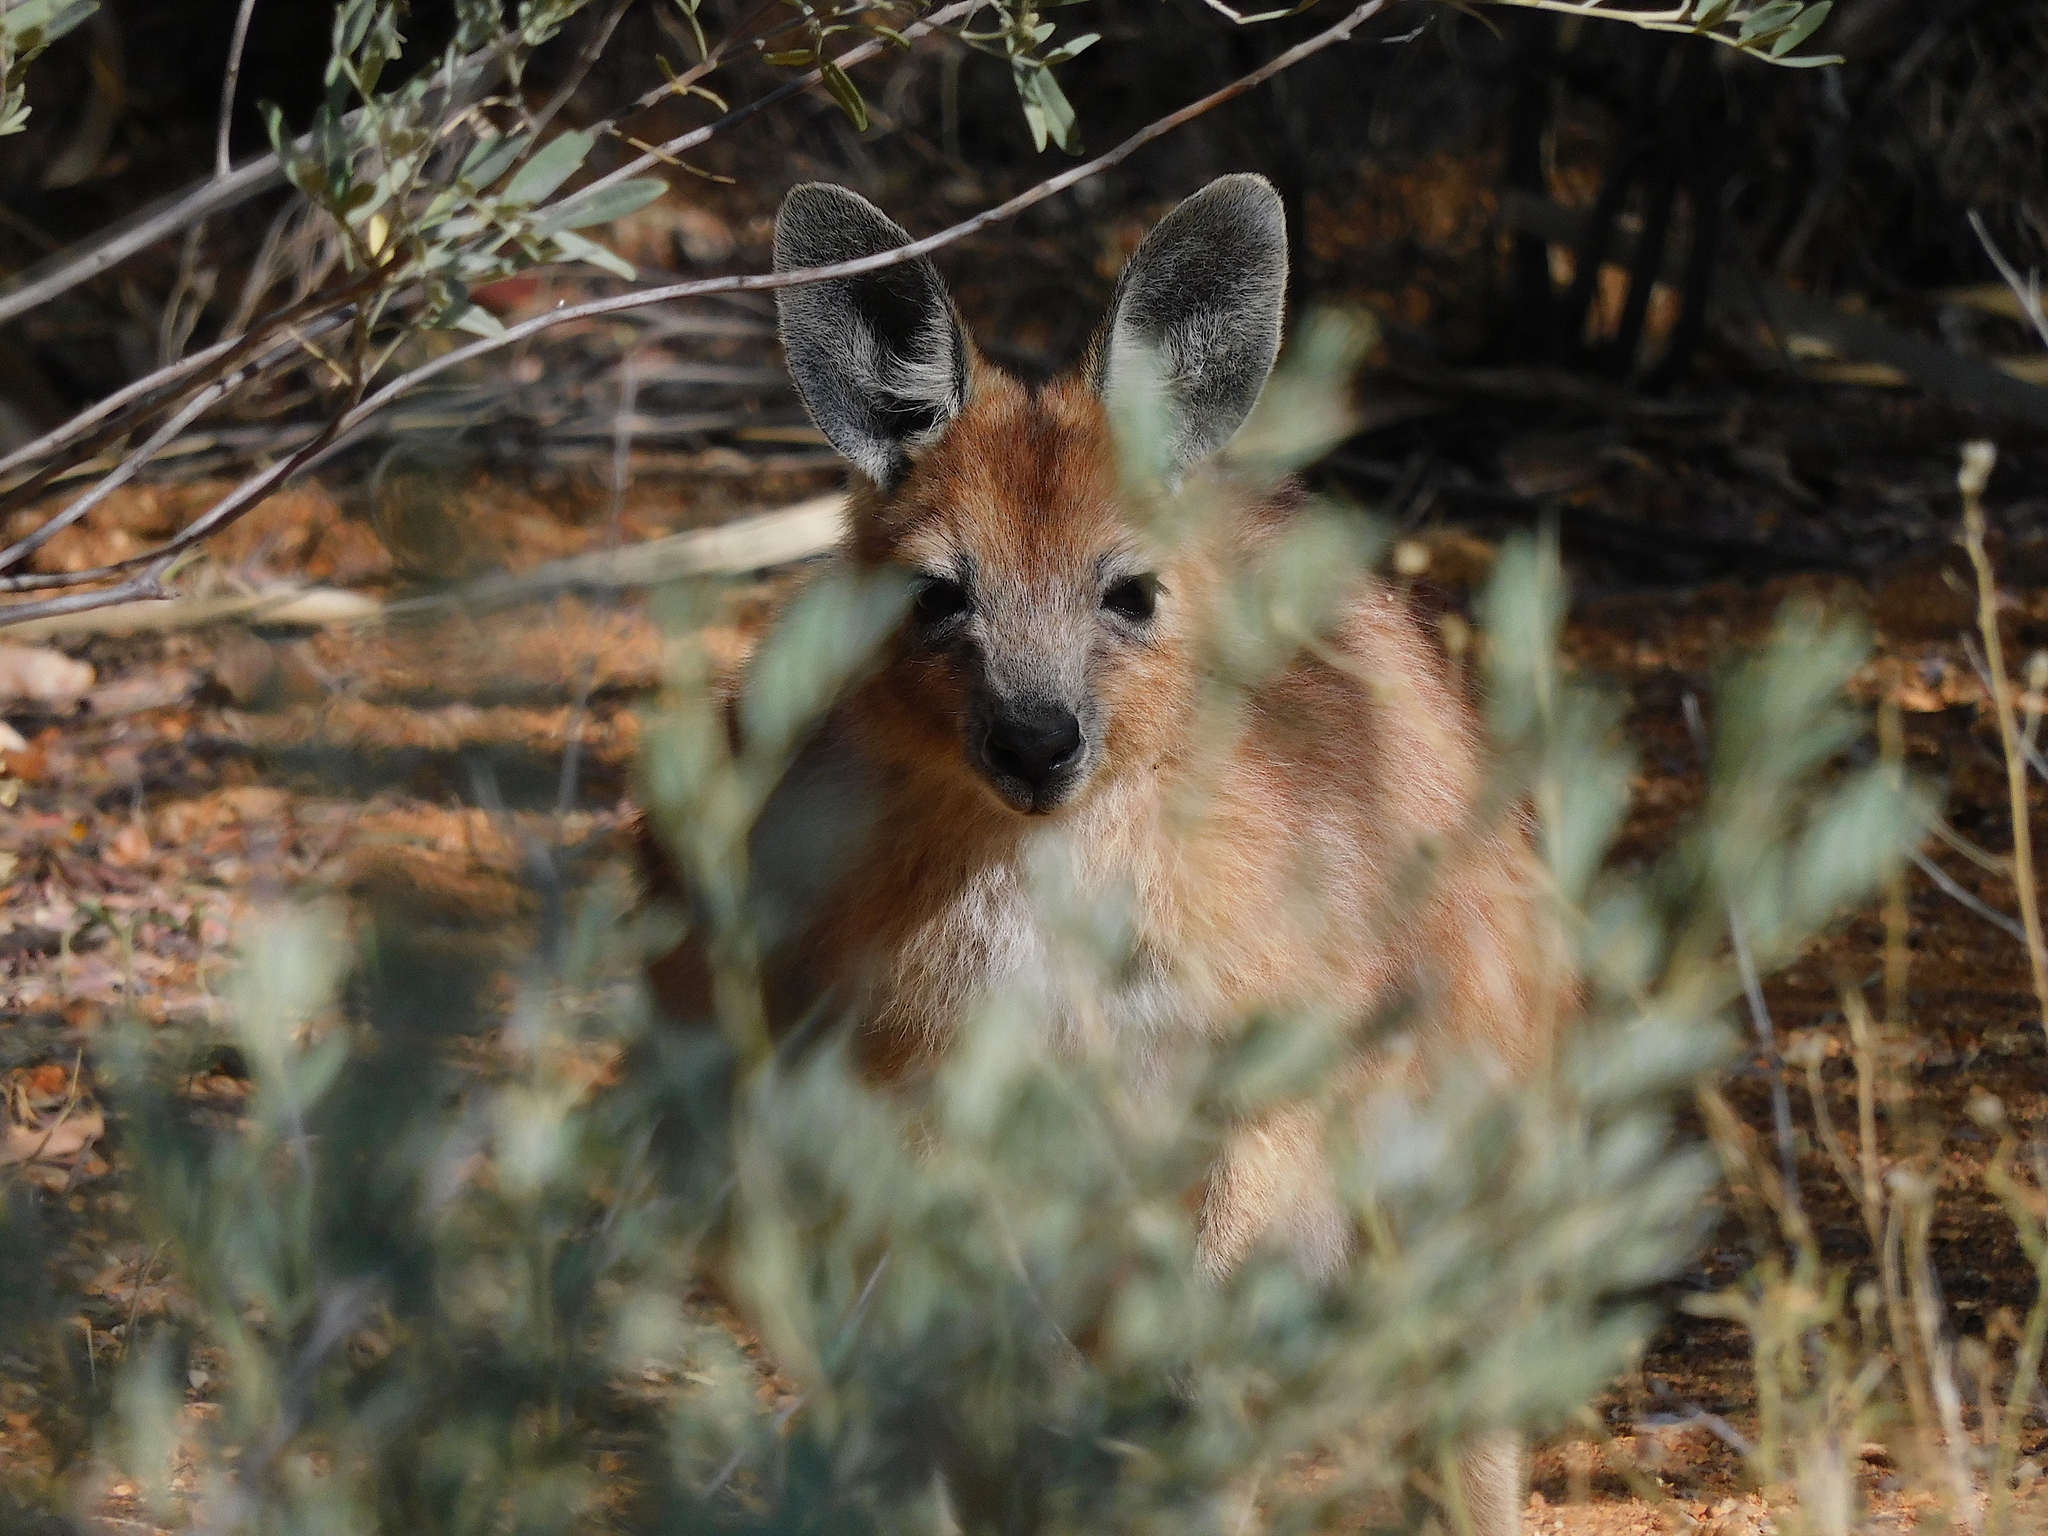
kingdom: Animalia
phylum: Chordata
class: Mammalia
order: Diprotodontia
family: Macropodidae
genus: Macropus
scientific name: Macropus robustus
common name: Eastern wallaroo
